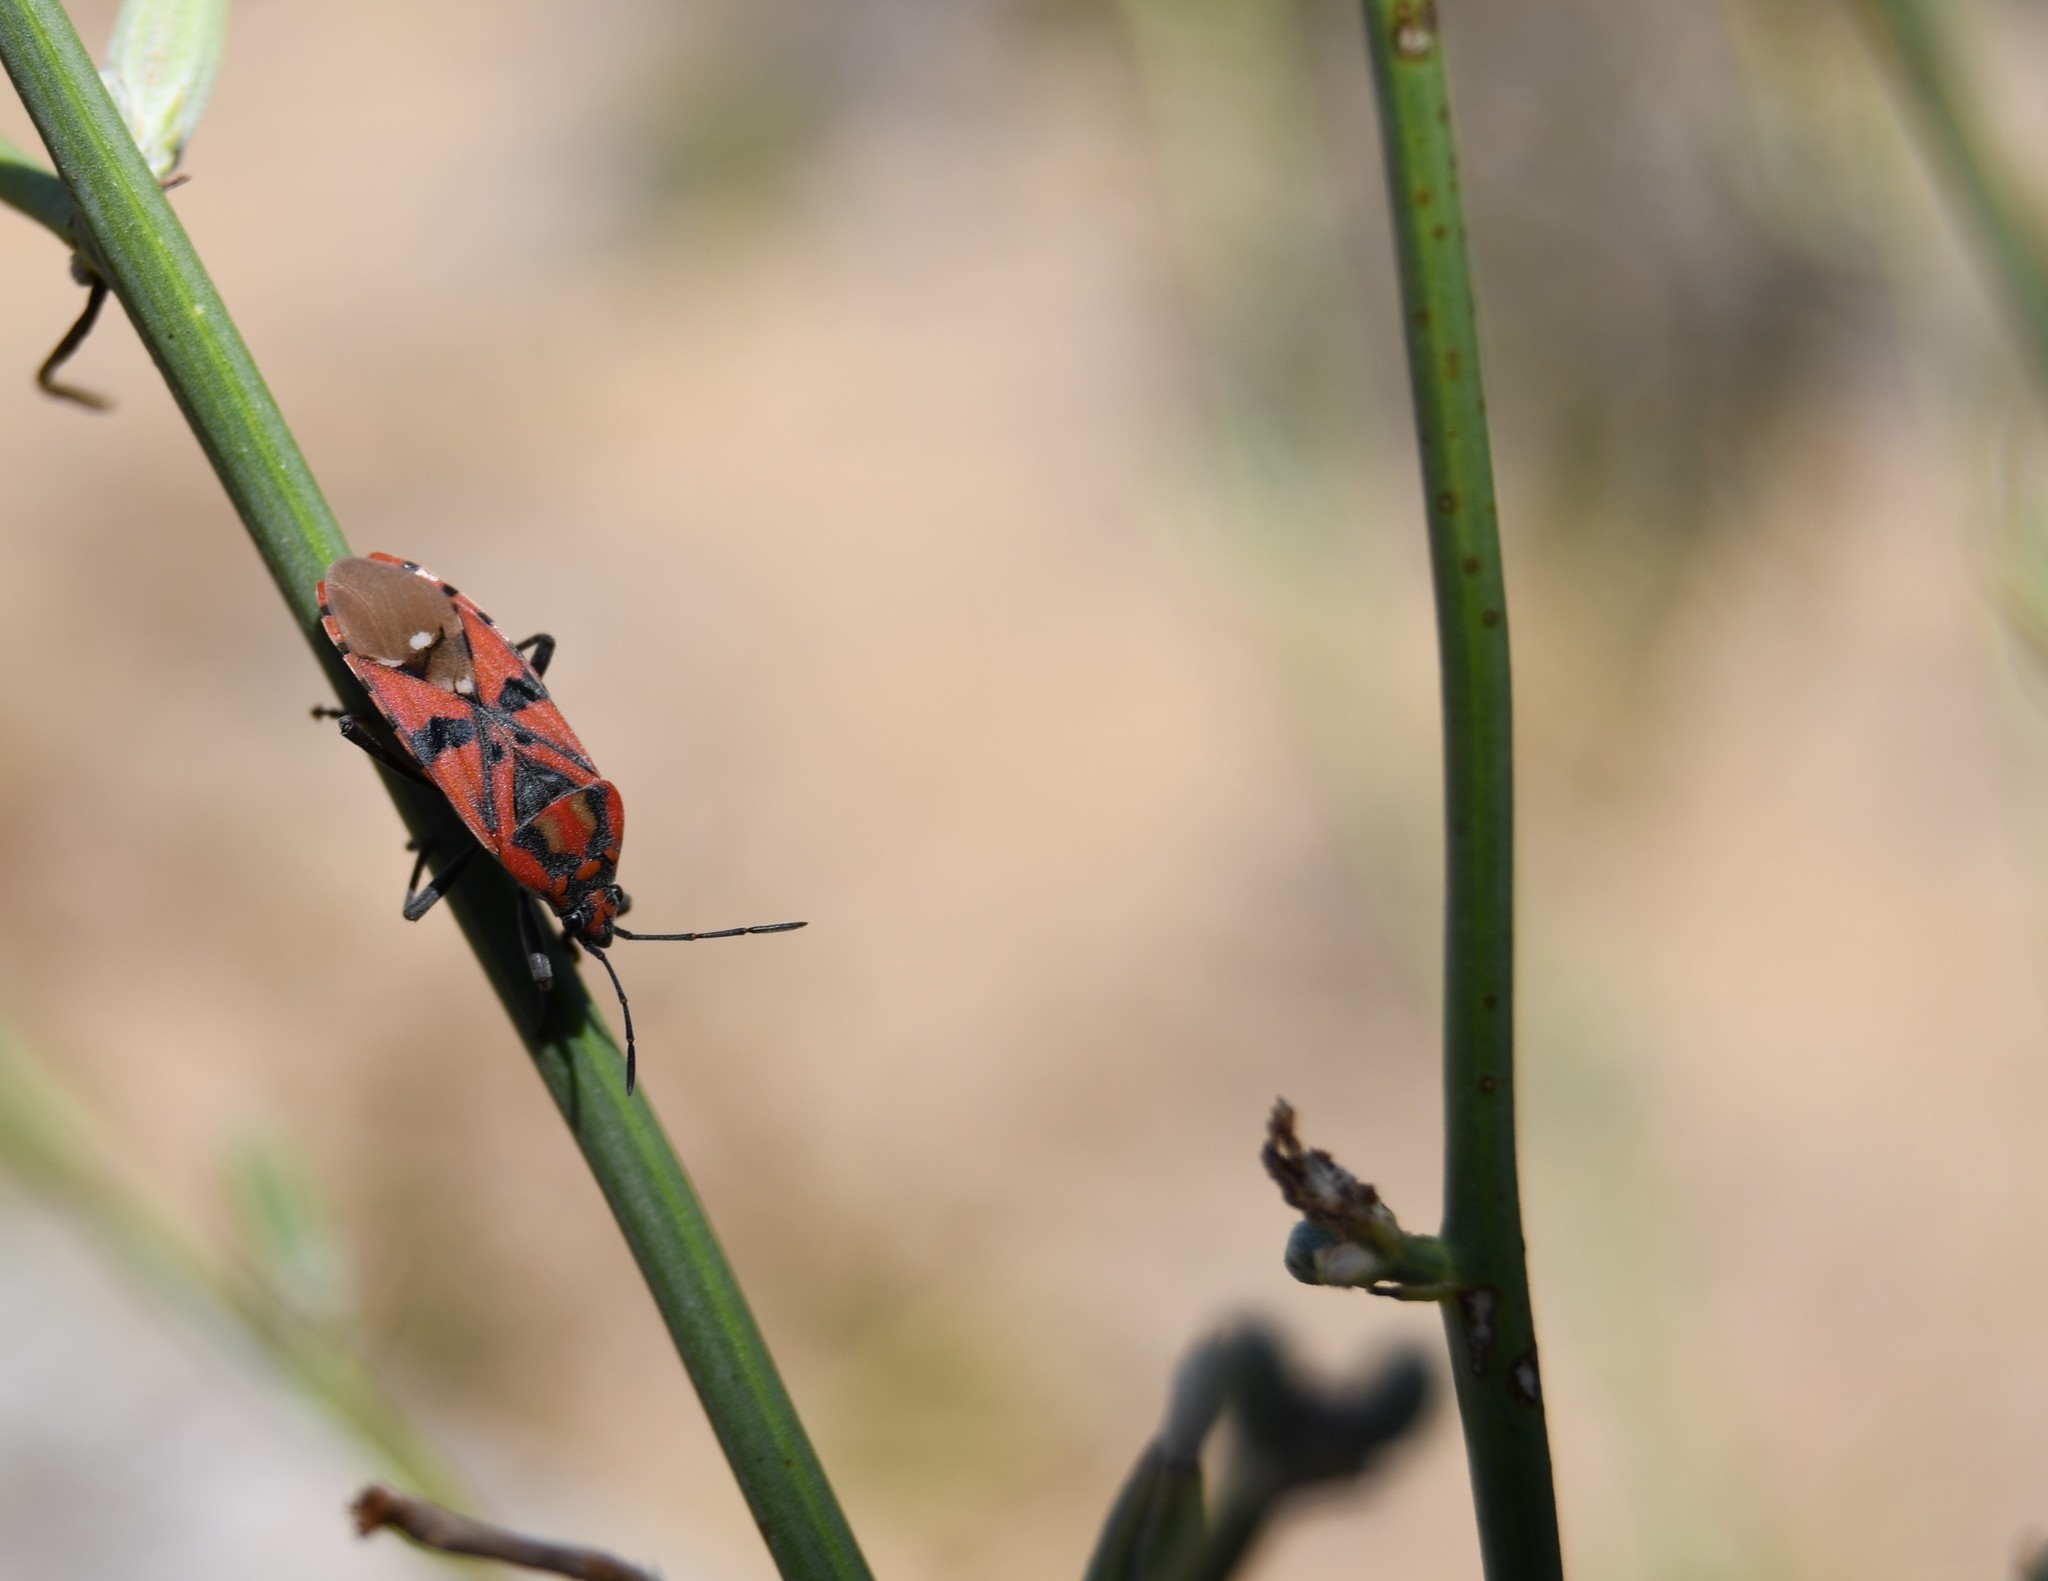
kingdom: Animalia
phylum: Arthropoda
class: Insecta
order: Hemiptera
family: Lygaeidae
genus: Spilostethus
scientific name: Spilostethus pandurus
